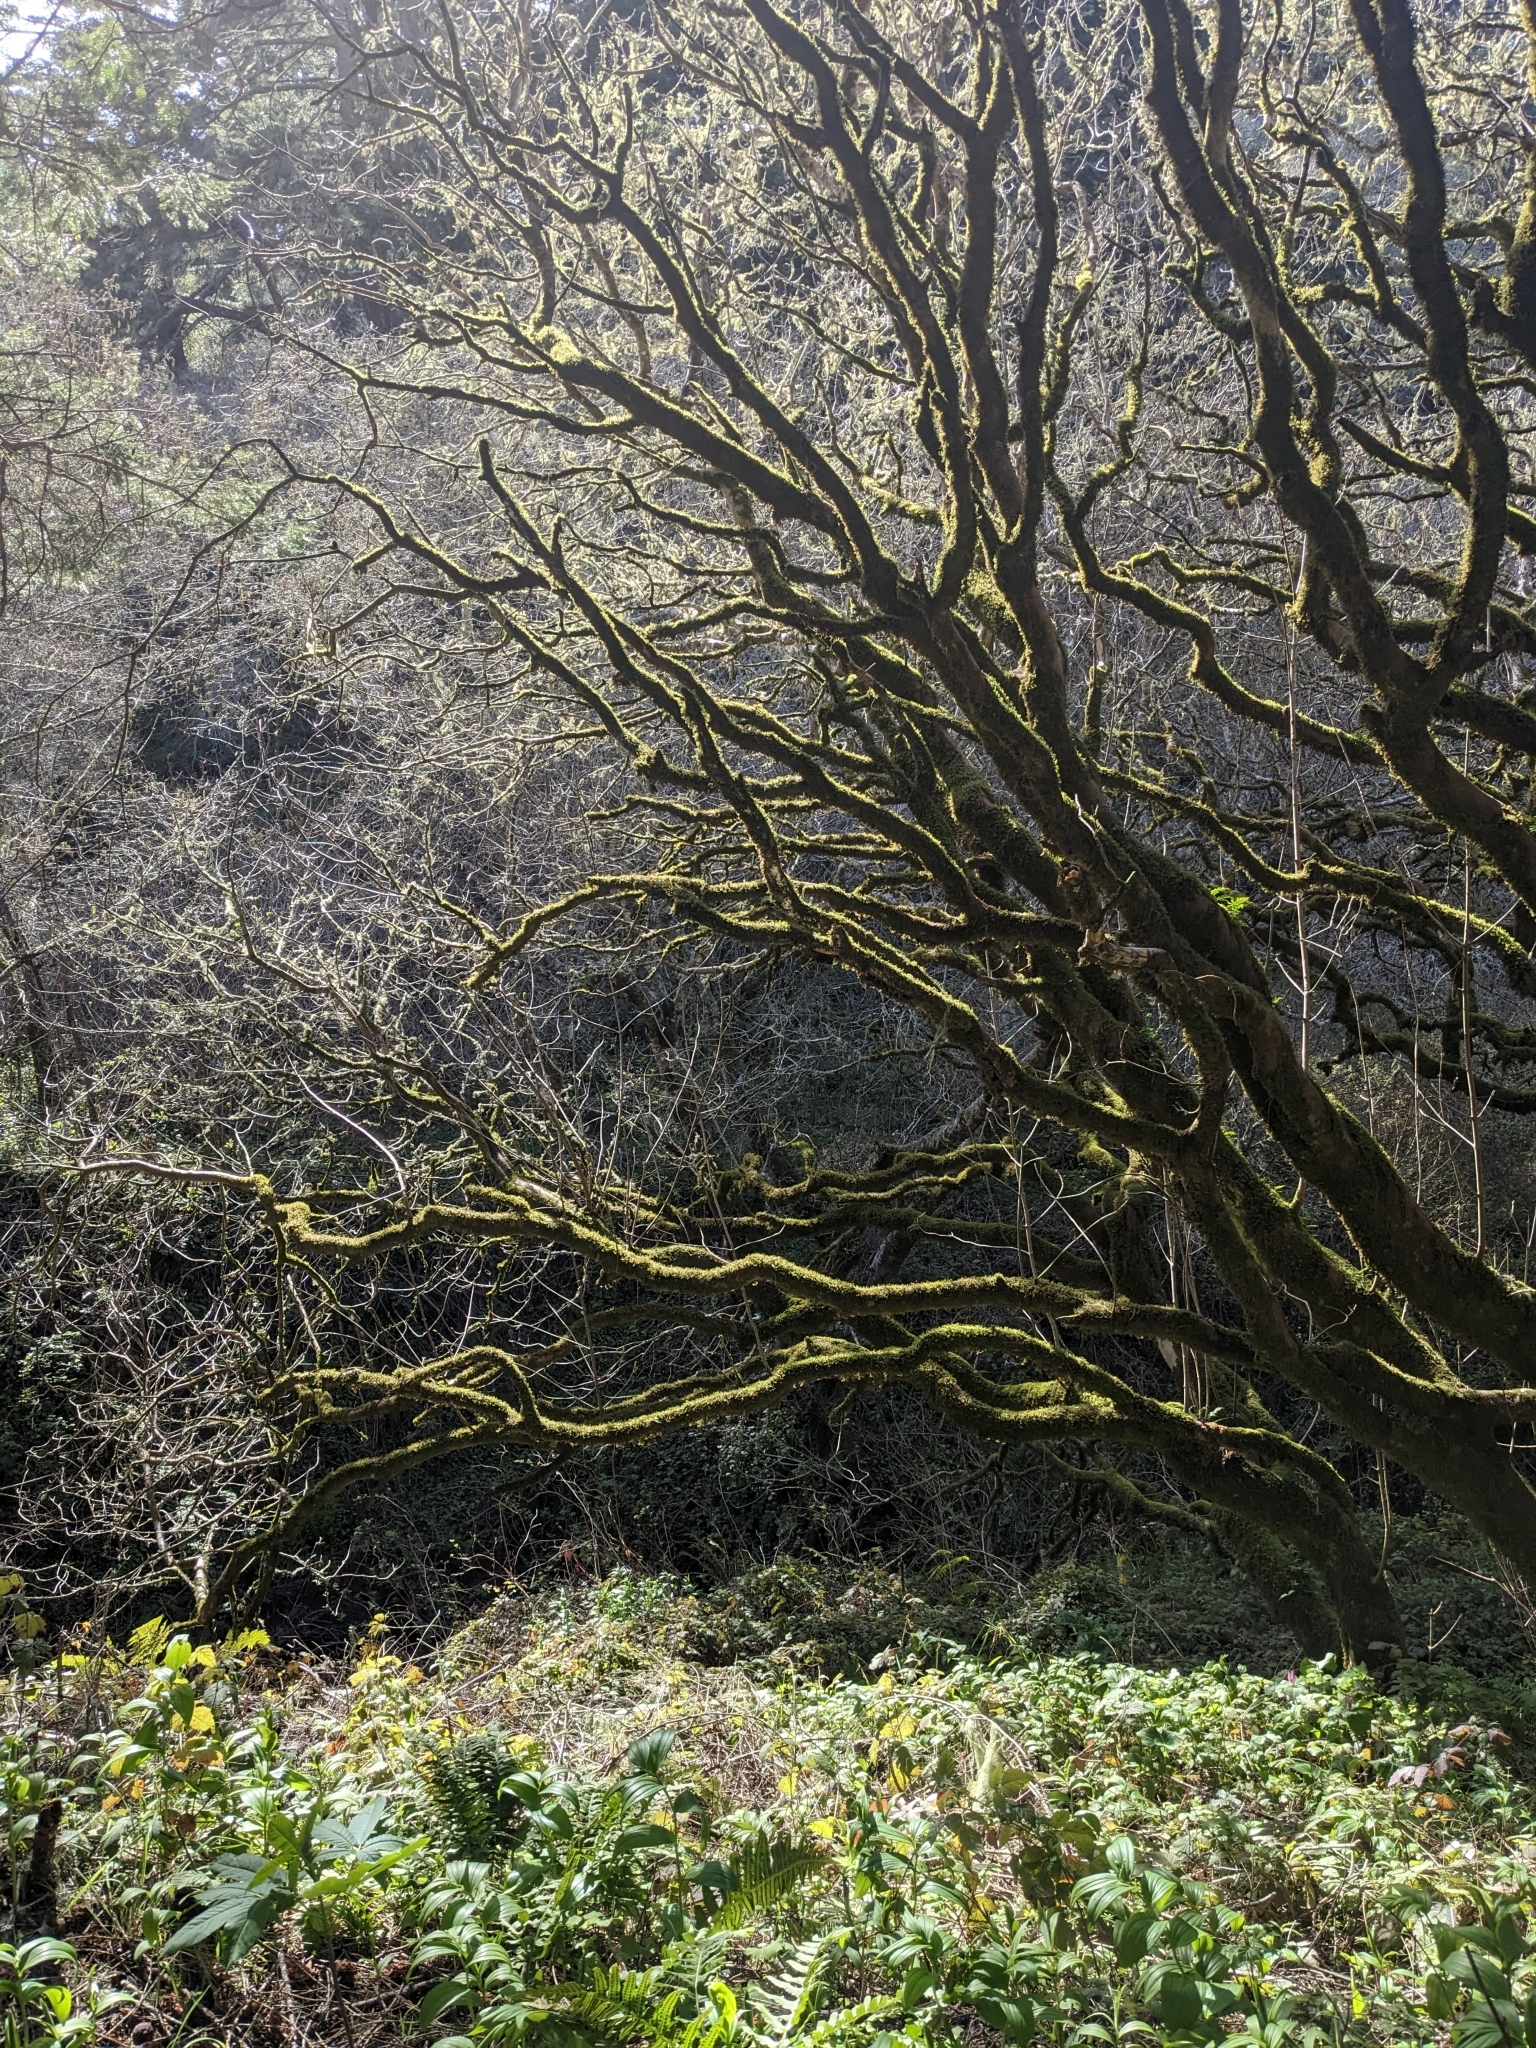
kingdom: Plantae
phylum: Tracheophyta
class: Magnoliopsida
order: Sapindales
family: Sapindaceae
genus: Aesculus
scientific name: Aesculus californica
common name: California buckeye
